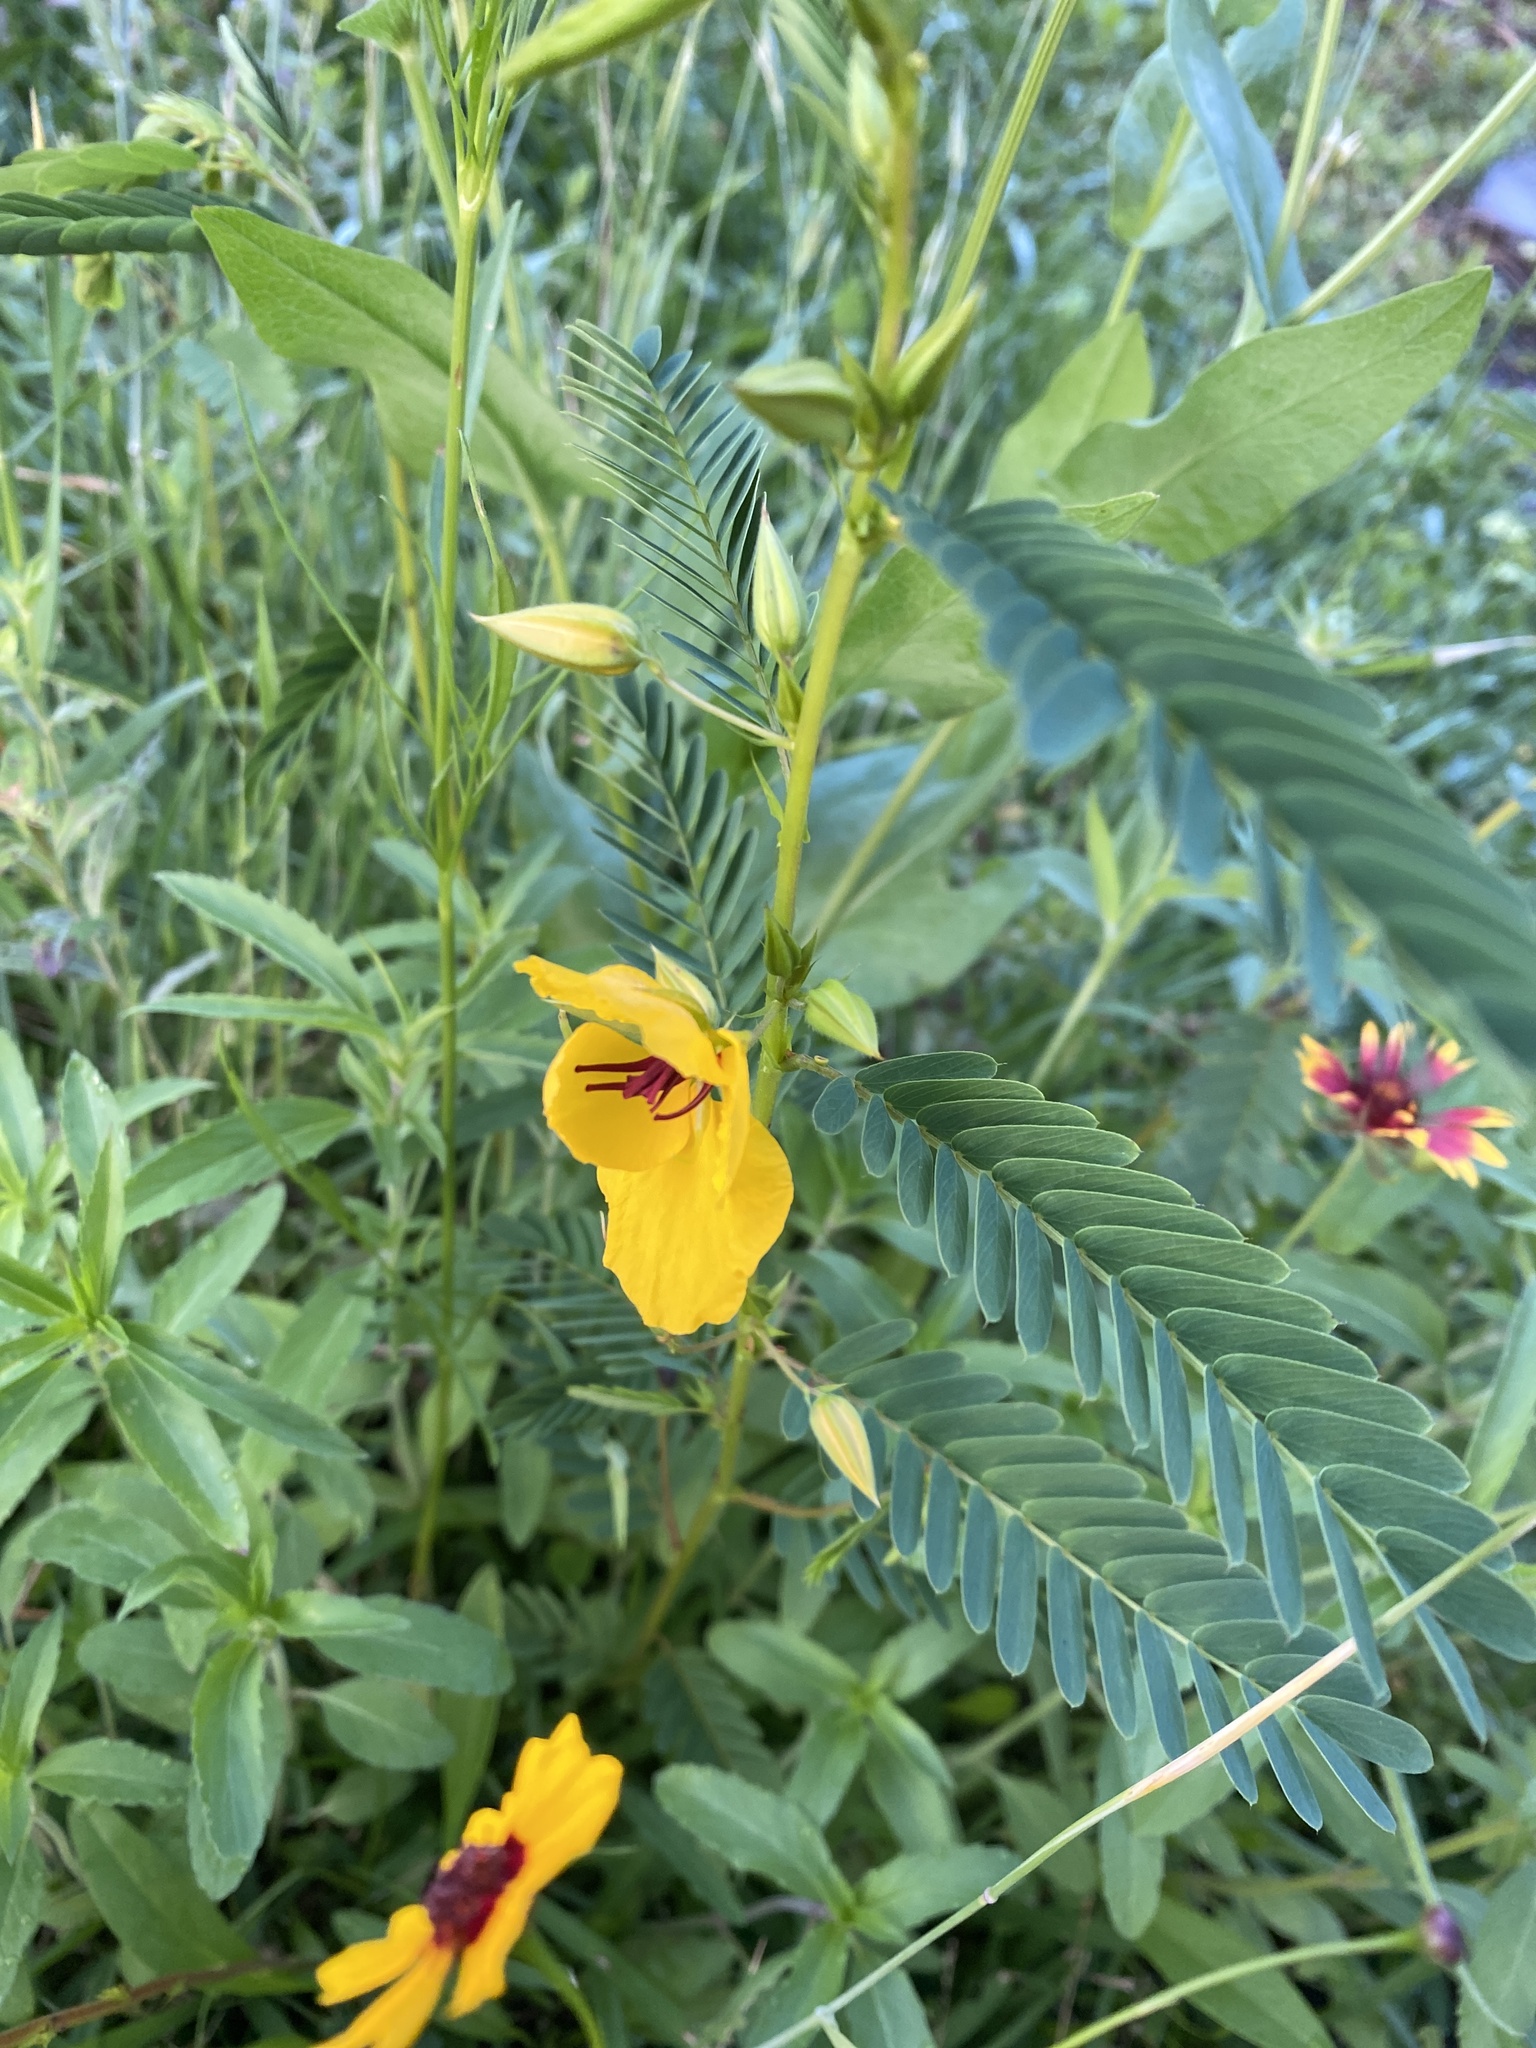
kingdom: Plantae
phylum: Tracheophyta
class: Magnoliopsida
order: Fabales
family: Fabaceae
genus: Chamaecrista
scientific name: Chamaecrista fasciculata
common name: Golden cassia
